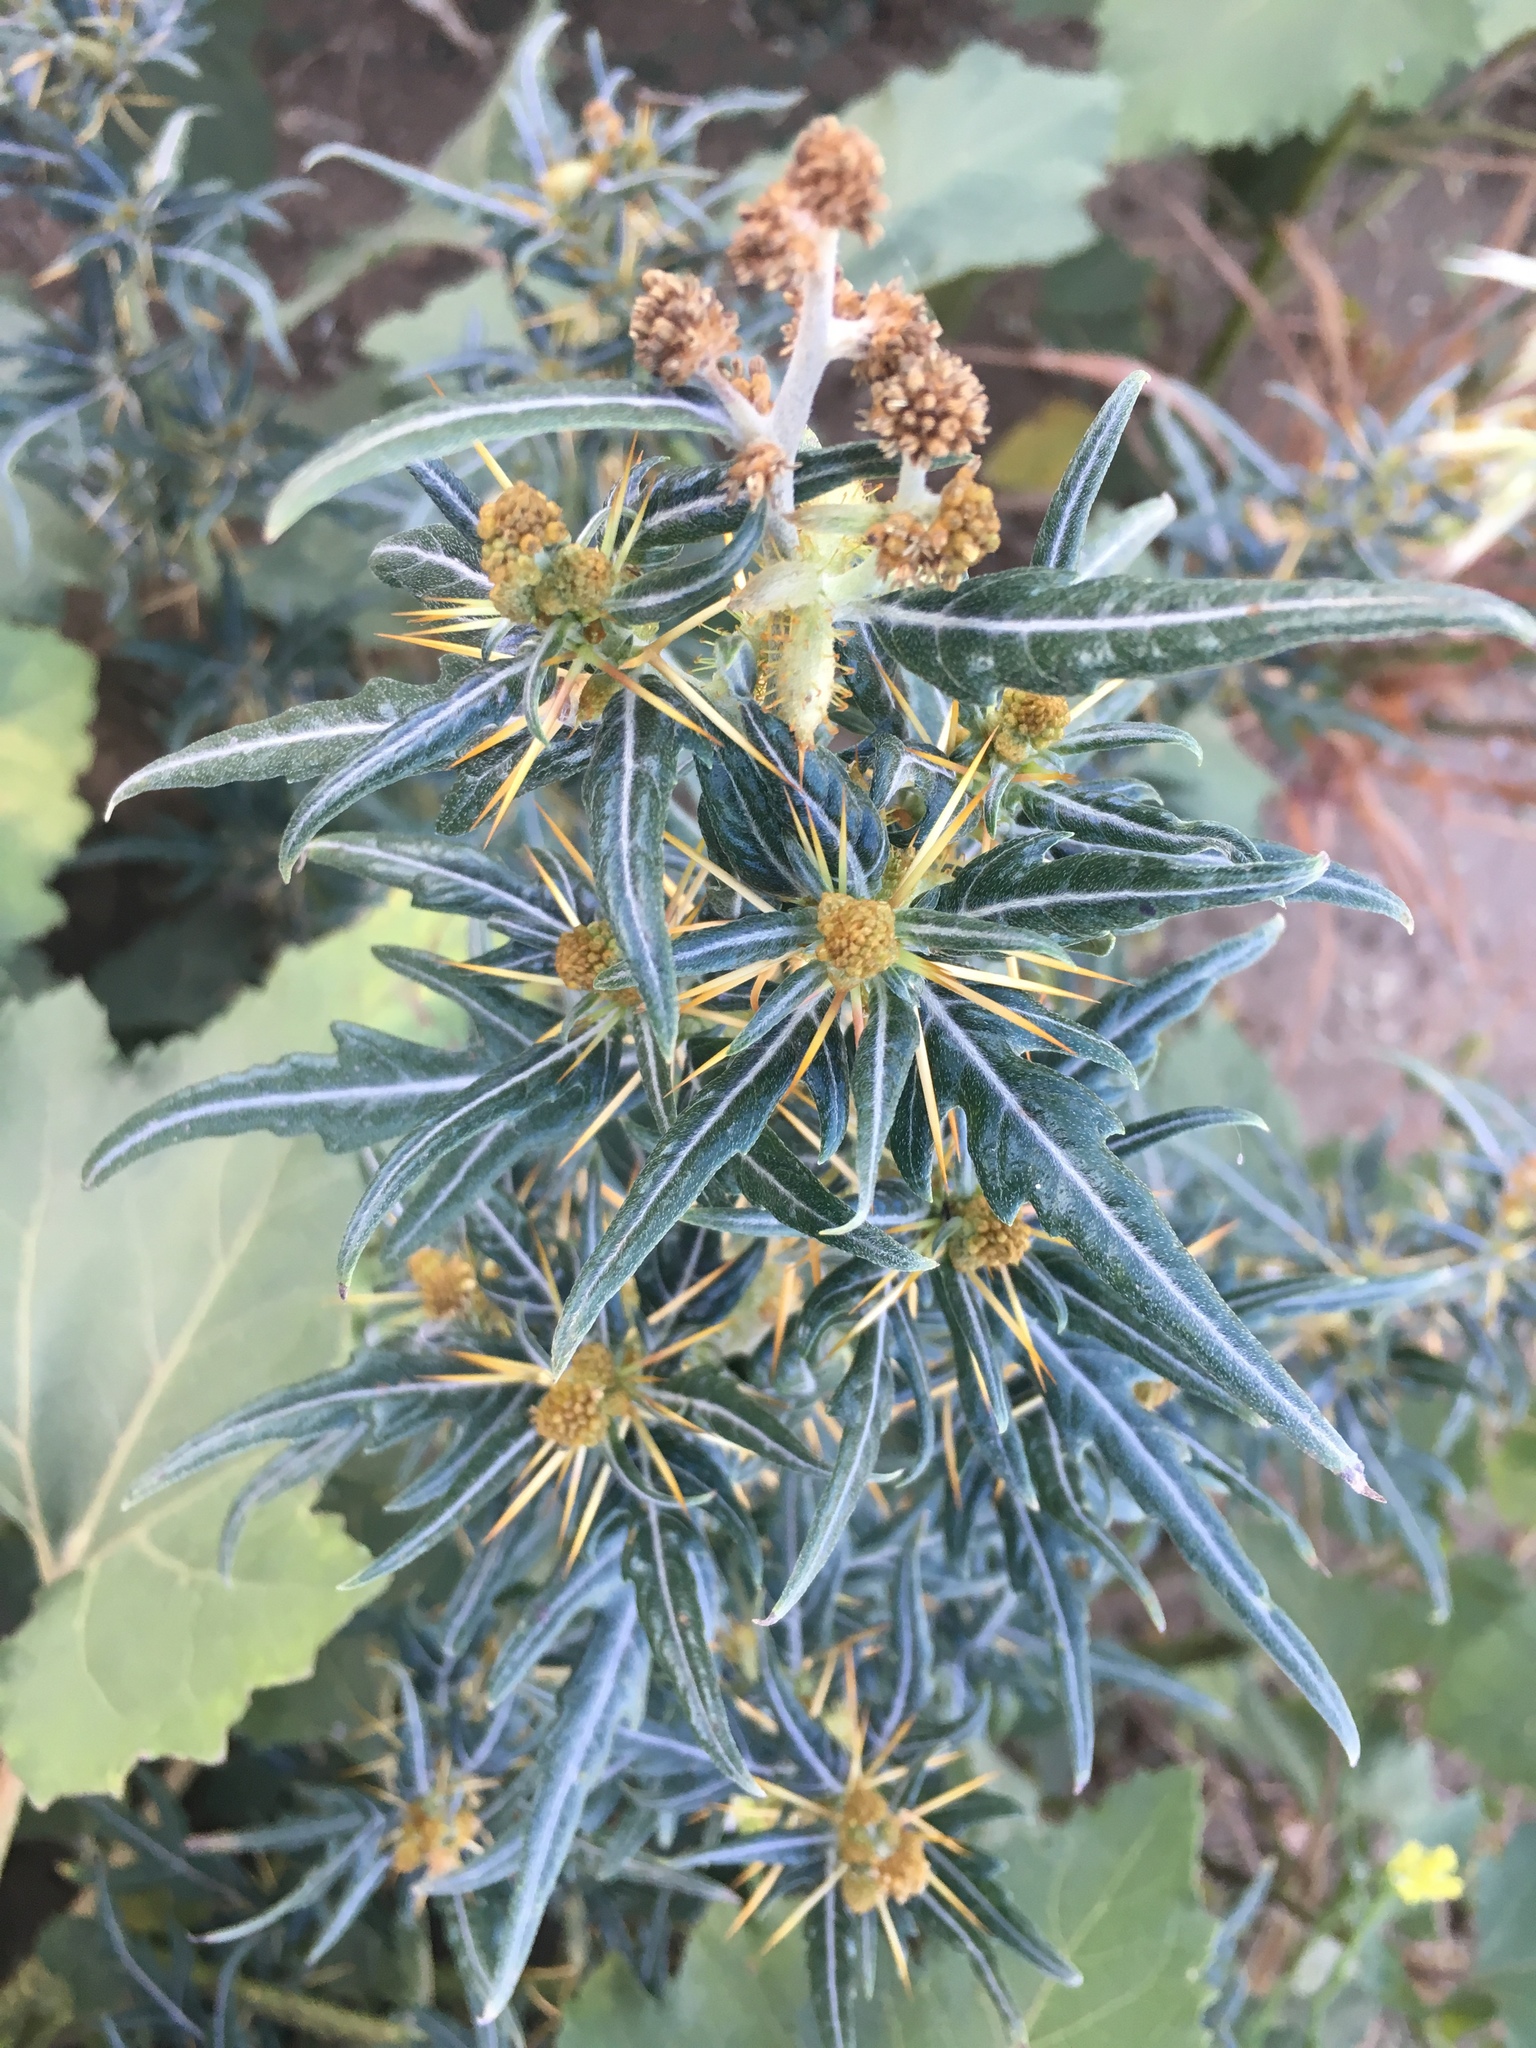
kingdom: Plantae
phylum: Tracheophyta
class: Magnoliopsida
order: Asterales
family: Asteraceae
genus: Xanthium
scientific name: Xanthium spinosum
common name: Spiny cocklebur
